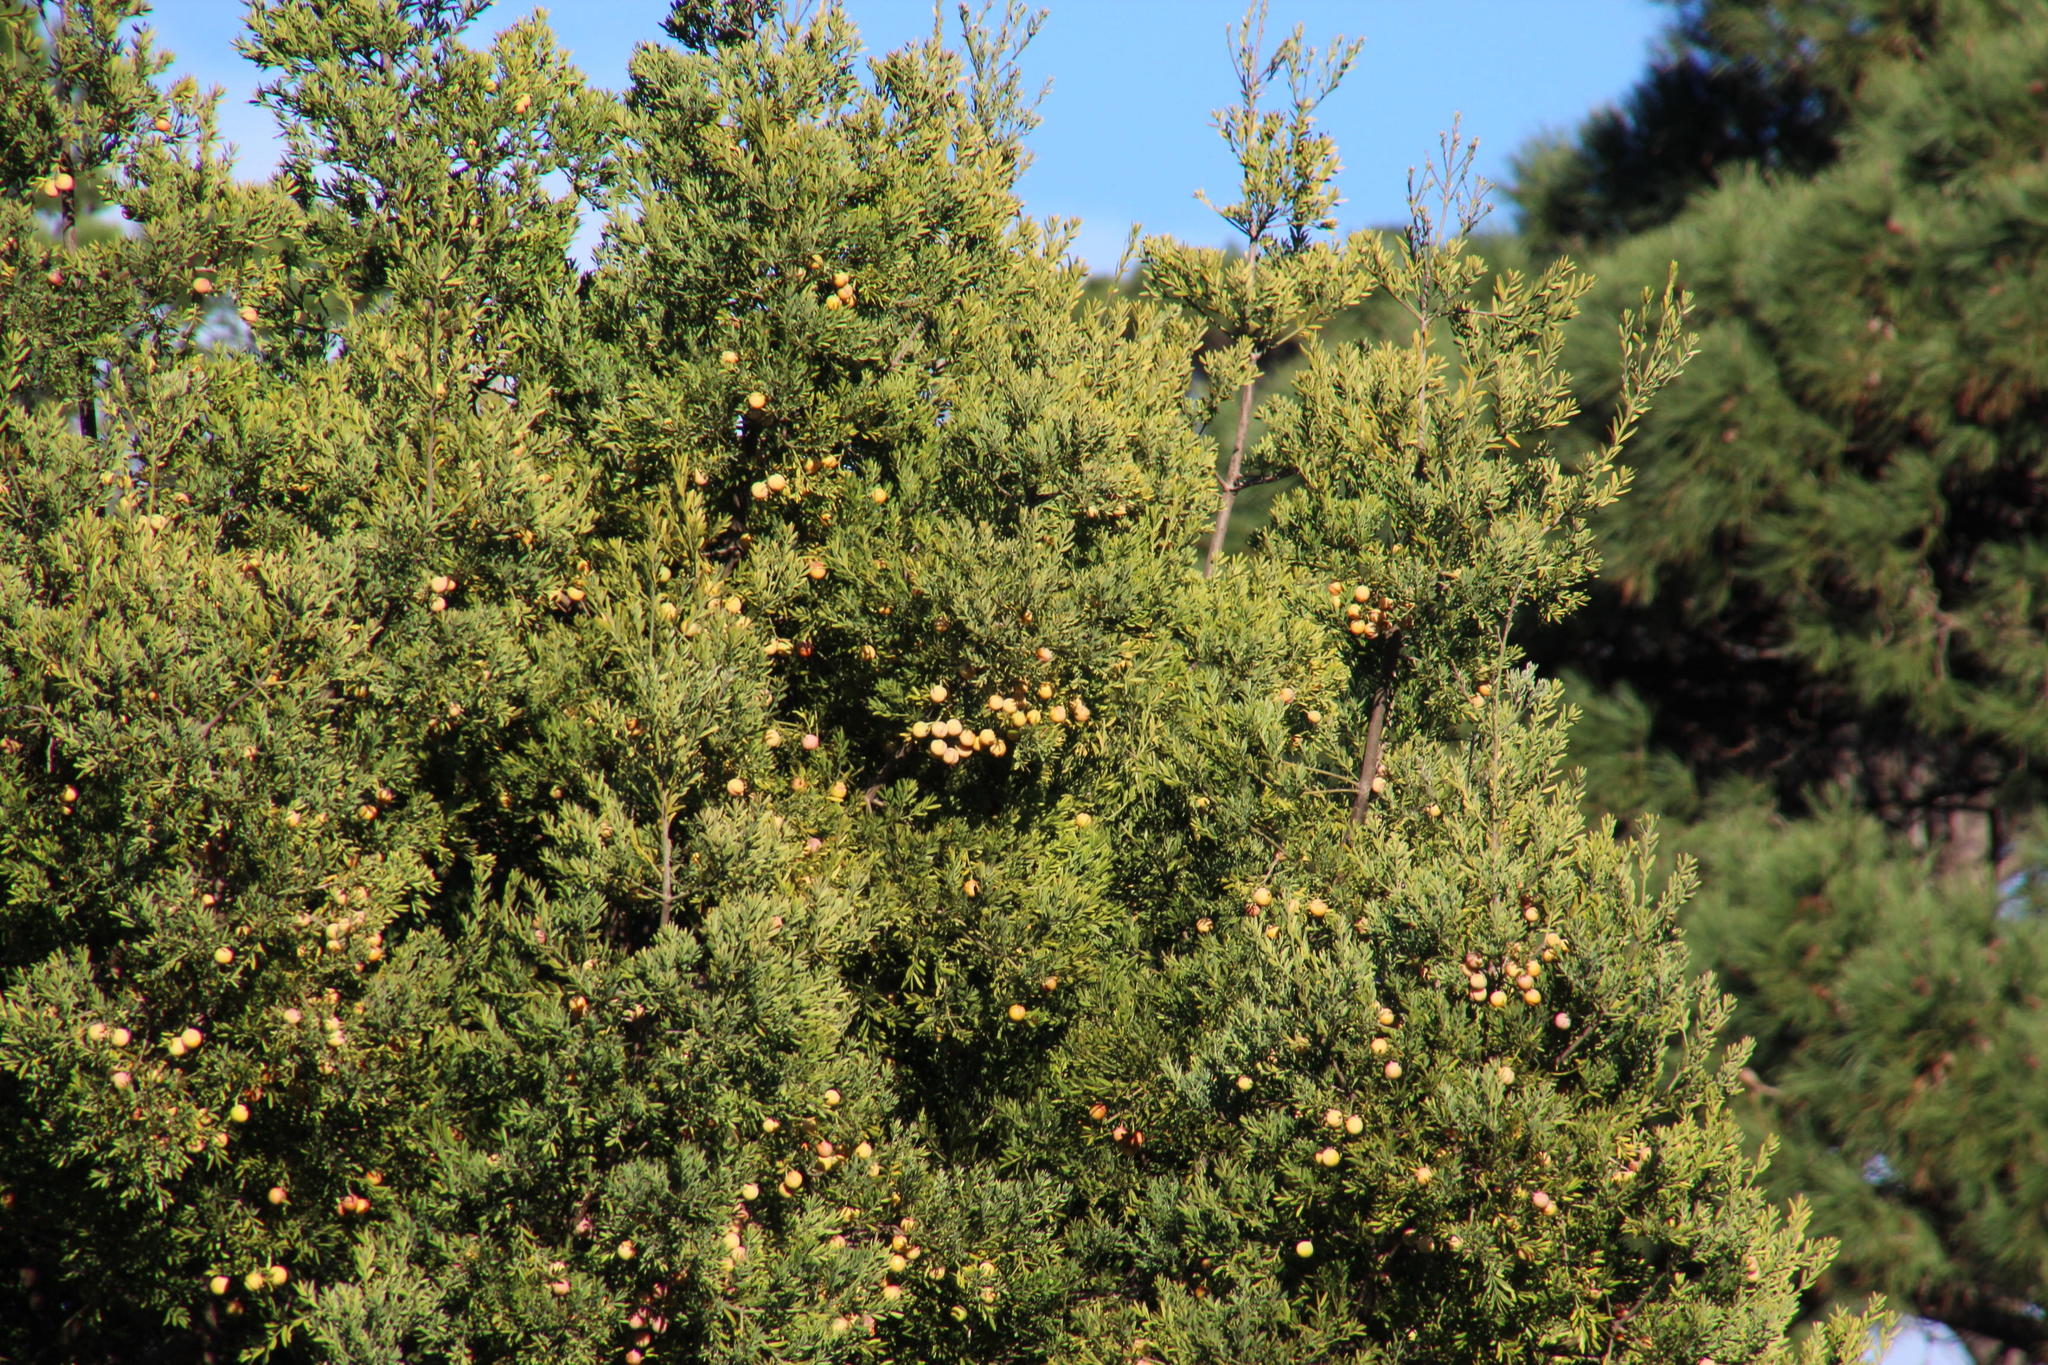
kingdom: Plantae
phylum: Tracheophyta
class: Pinopsida
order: Pinales
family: Podocarpaceae
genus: Afrocarpus
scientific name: Afrocarpus falcatus
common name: Bastard yellowwood
